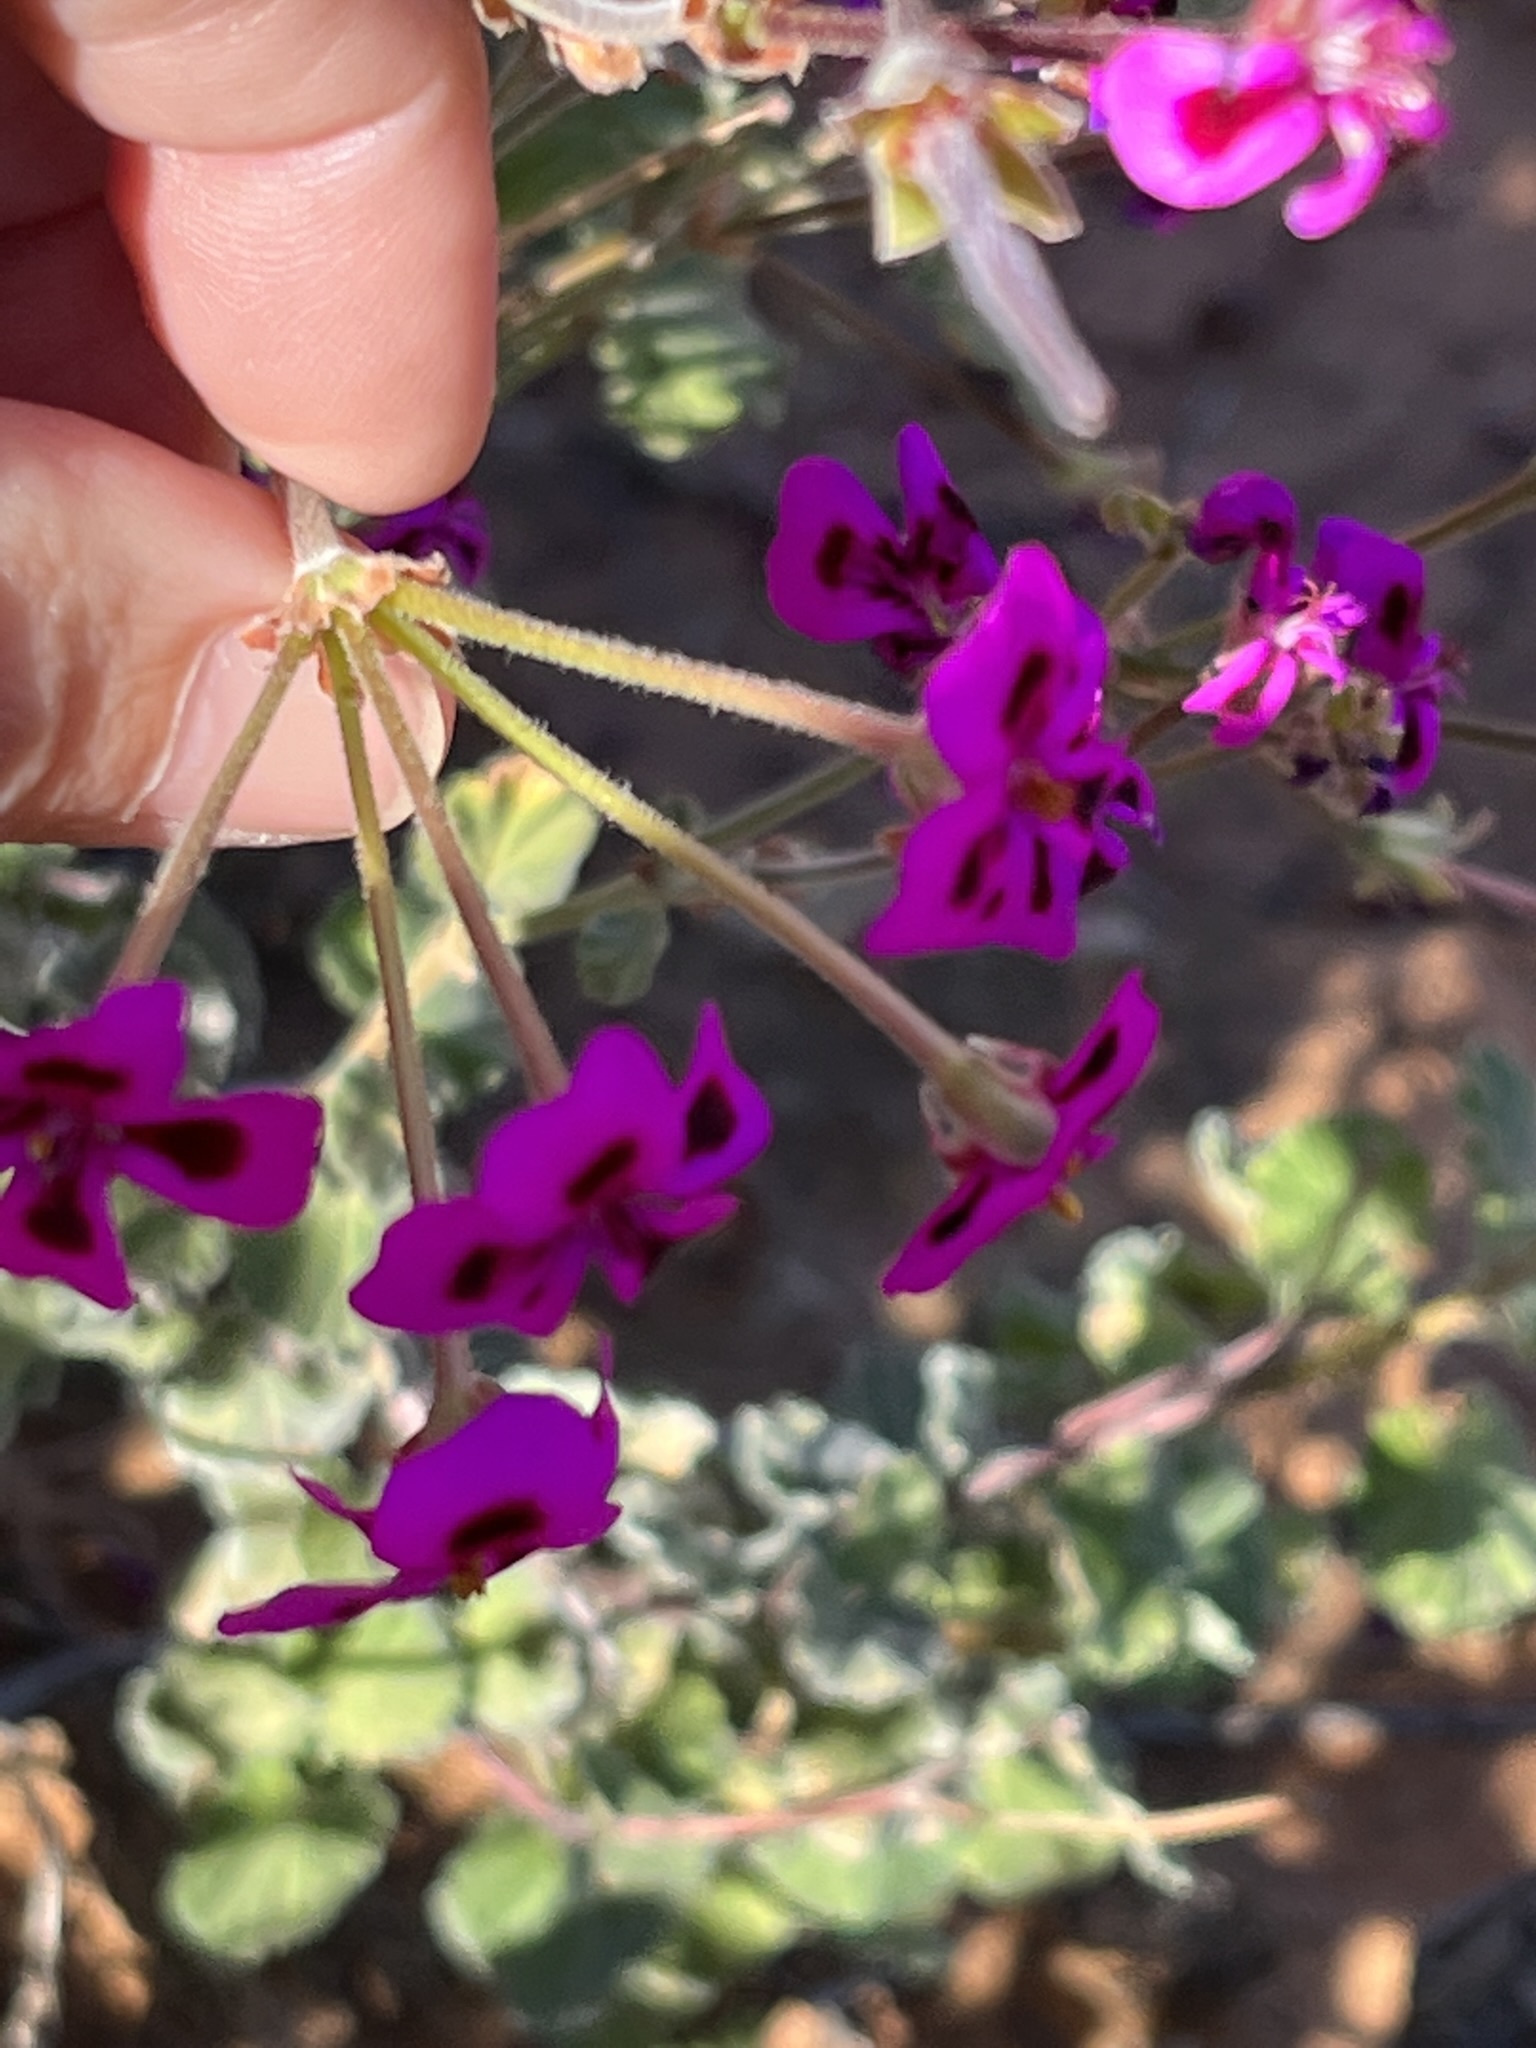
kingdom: Plantae
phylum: Tracheophyta
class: Magnoliopsida
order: Geraniales
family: Geraniaceae
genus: Pelargonium
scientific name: Pelargonium magenteum
